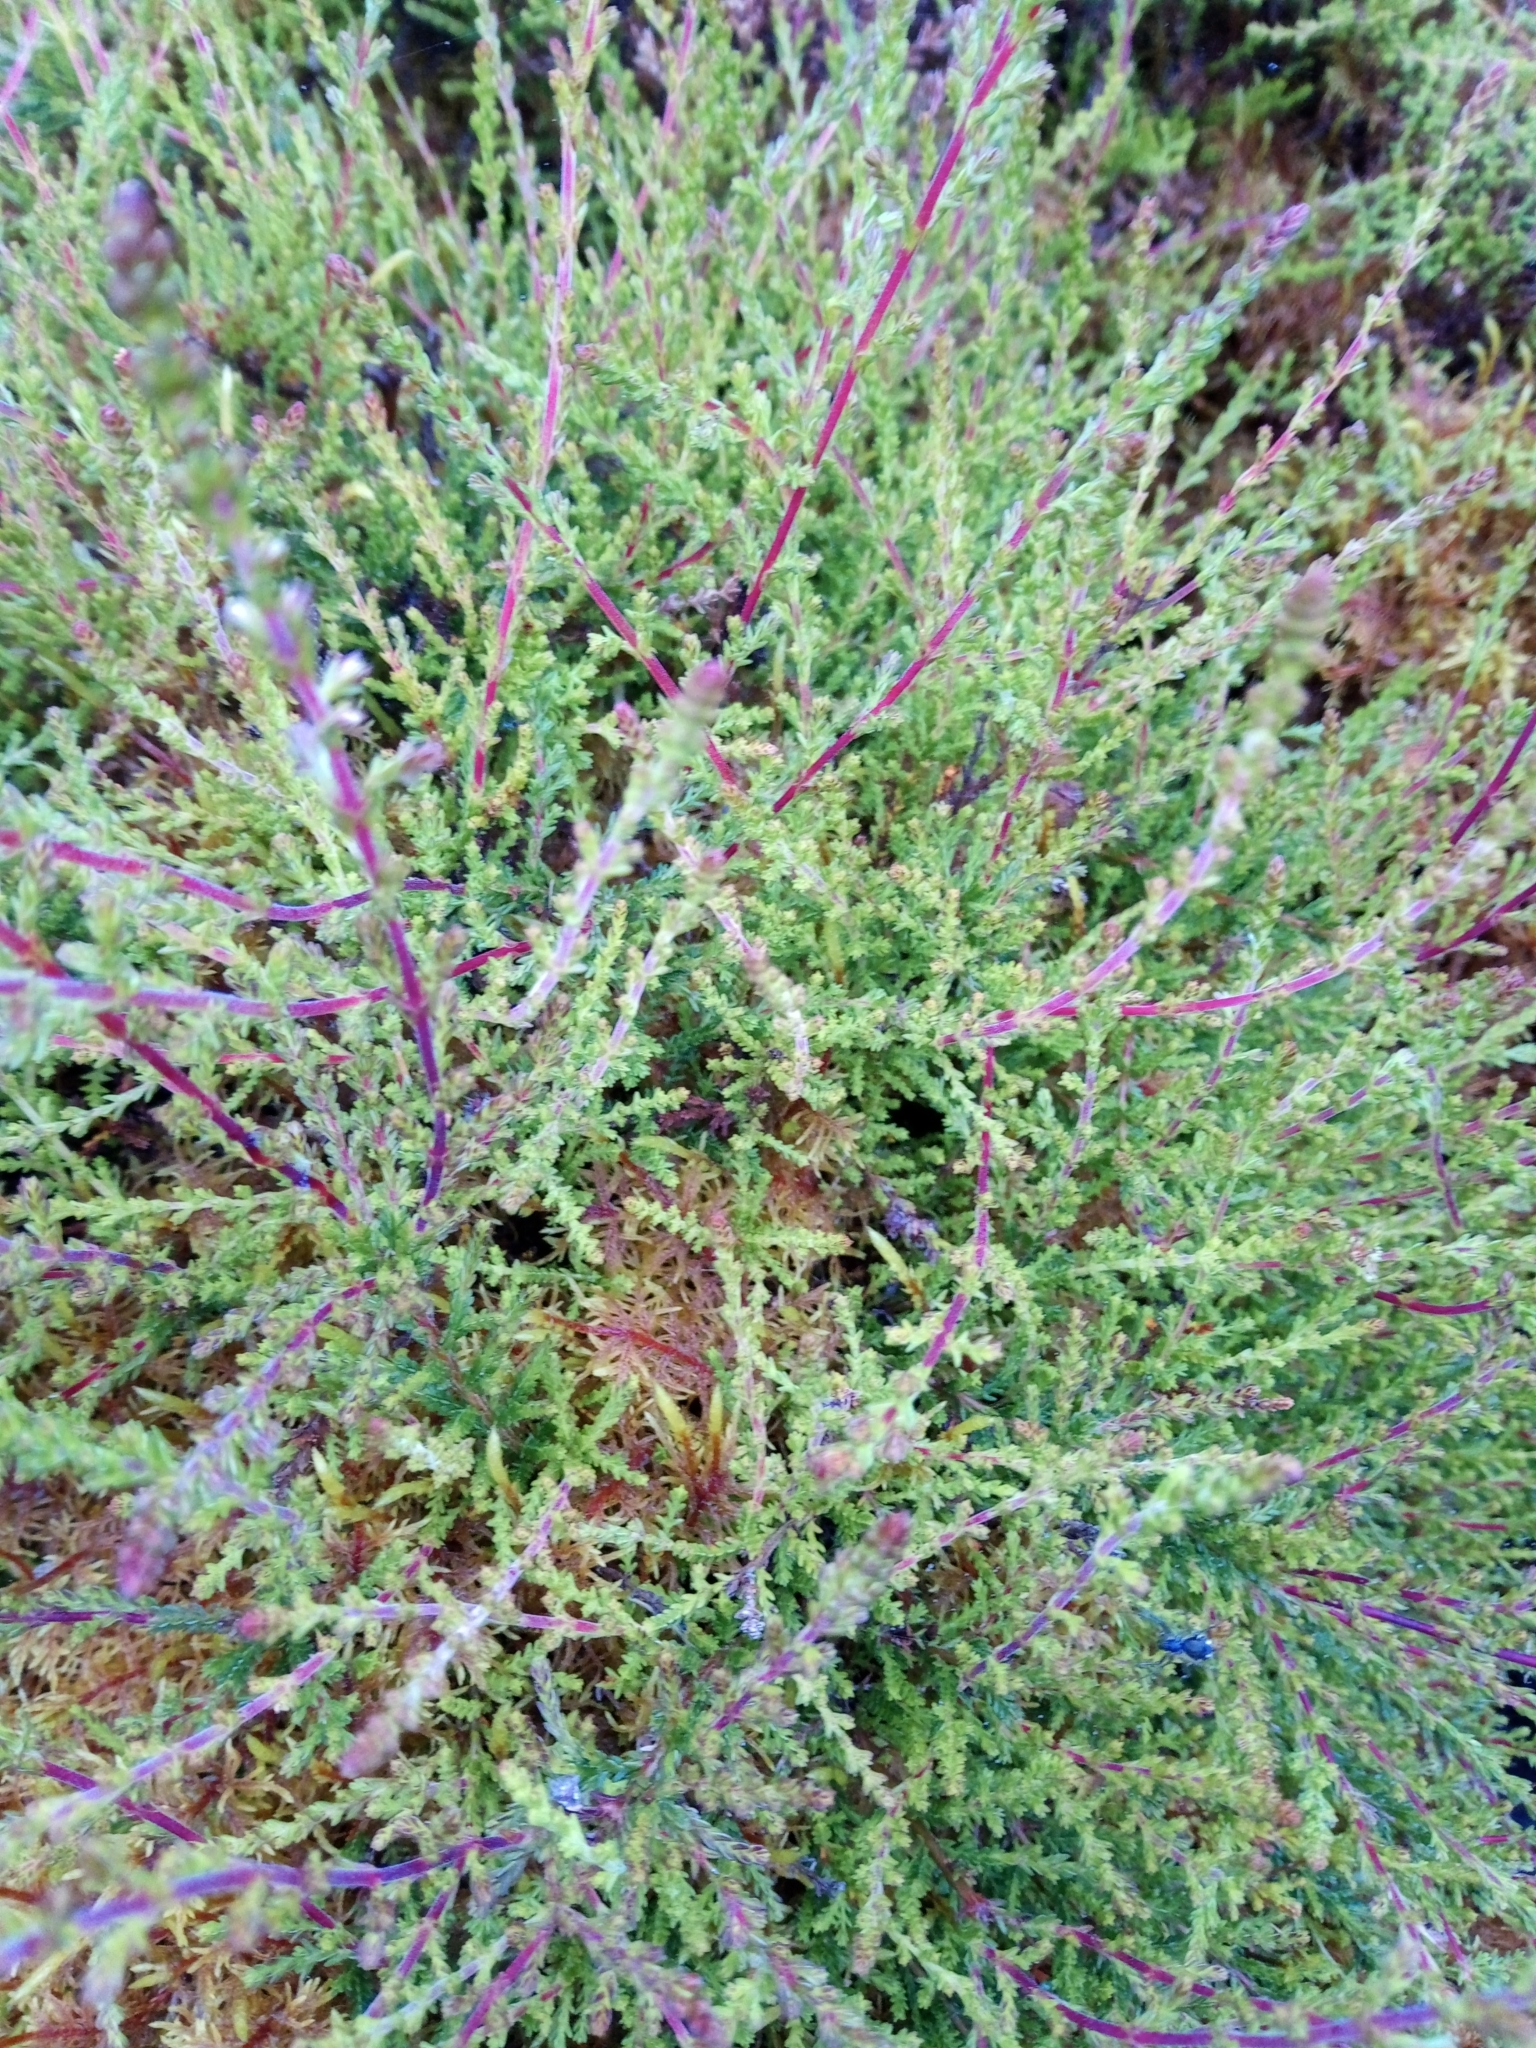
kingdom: Plantae
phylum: Tracheophyta
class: Magnoliopsida
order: Ericales
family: Ericaceae
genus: Calluna
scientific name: Calluna vulgaris
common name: Heather
